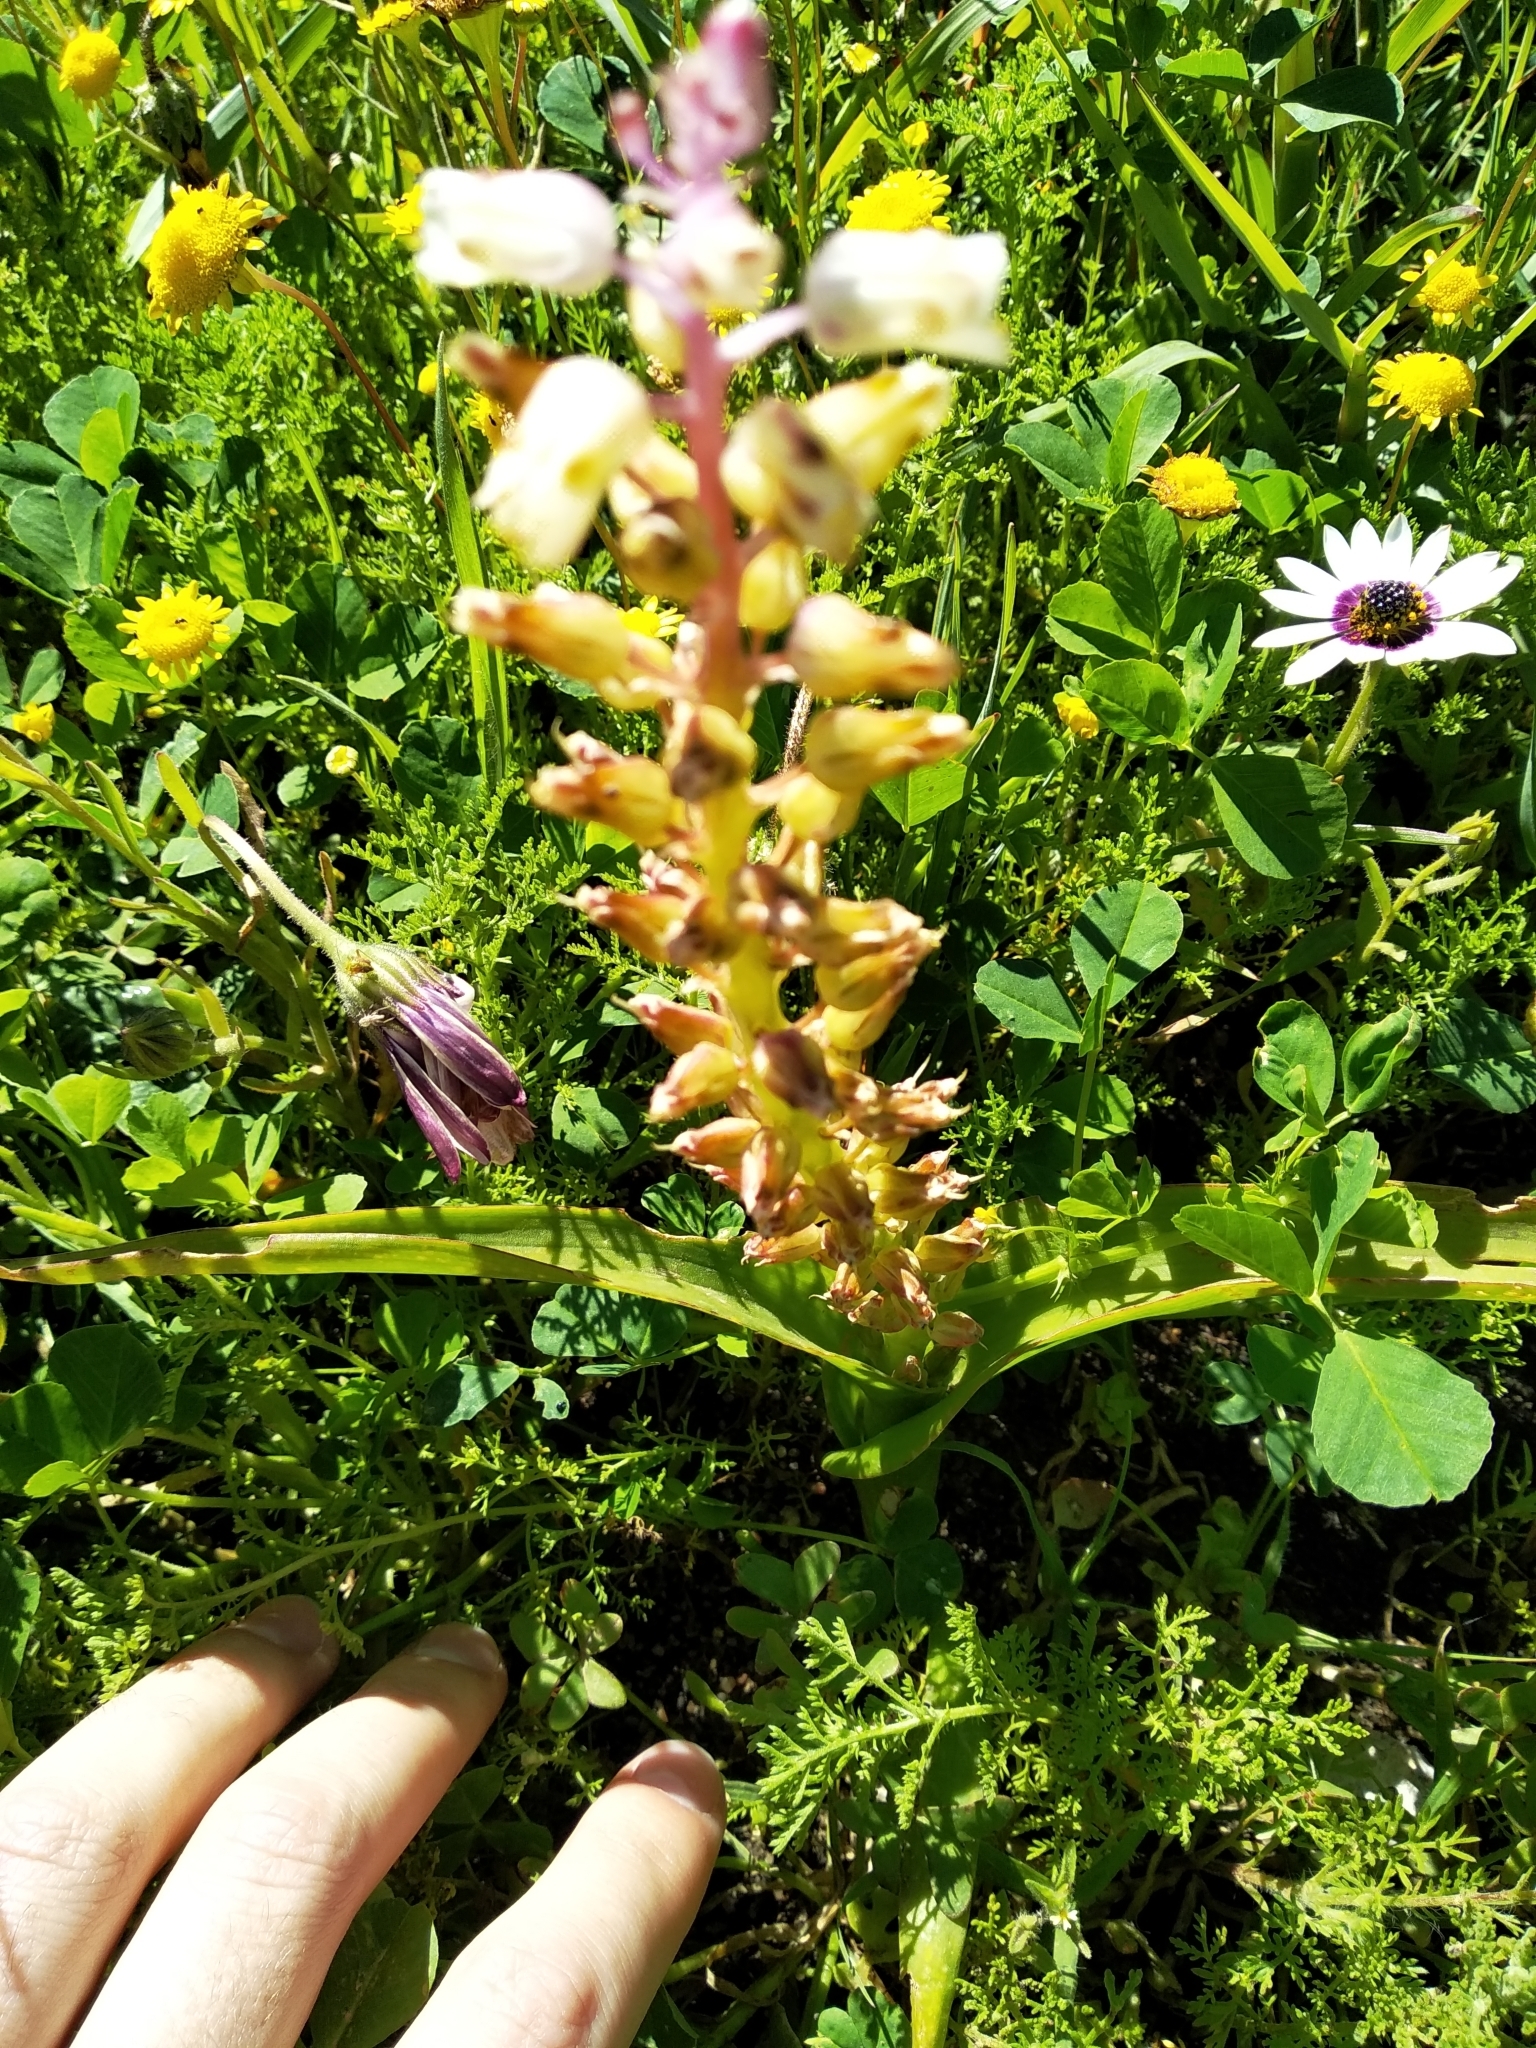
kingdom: Plantae
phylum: Tracheophyta
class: Liliopsida
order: Asparagales
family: Asparagaceae
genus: Lachenalia
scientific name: Lachenalia pallida
